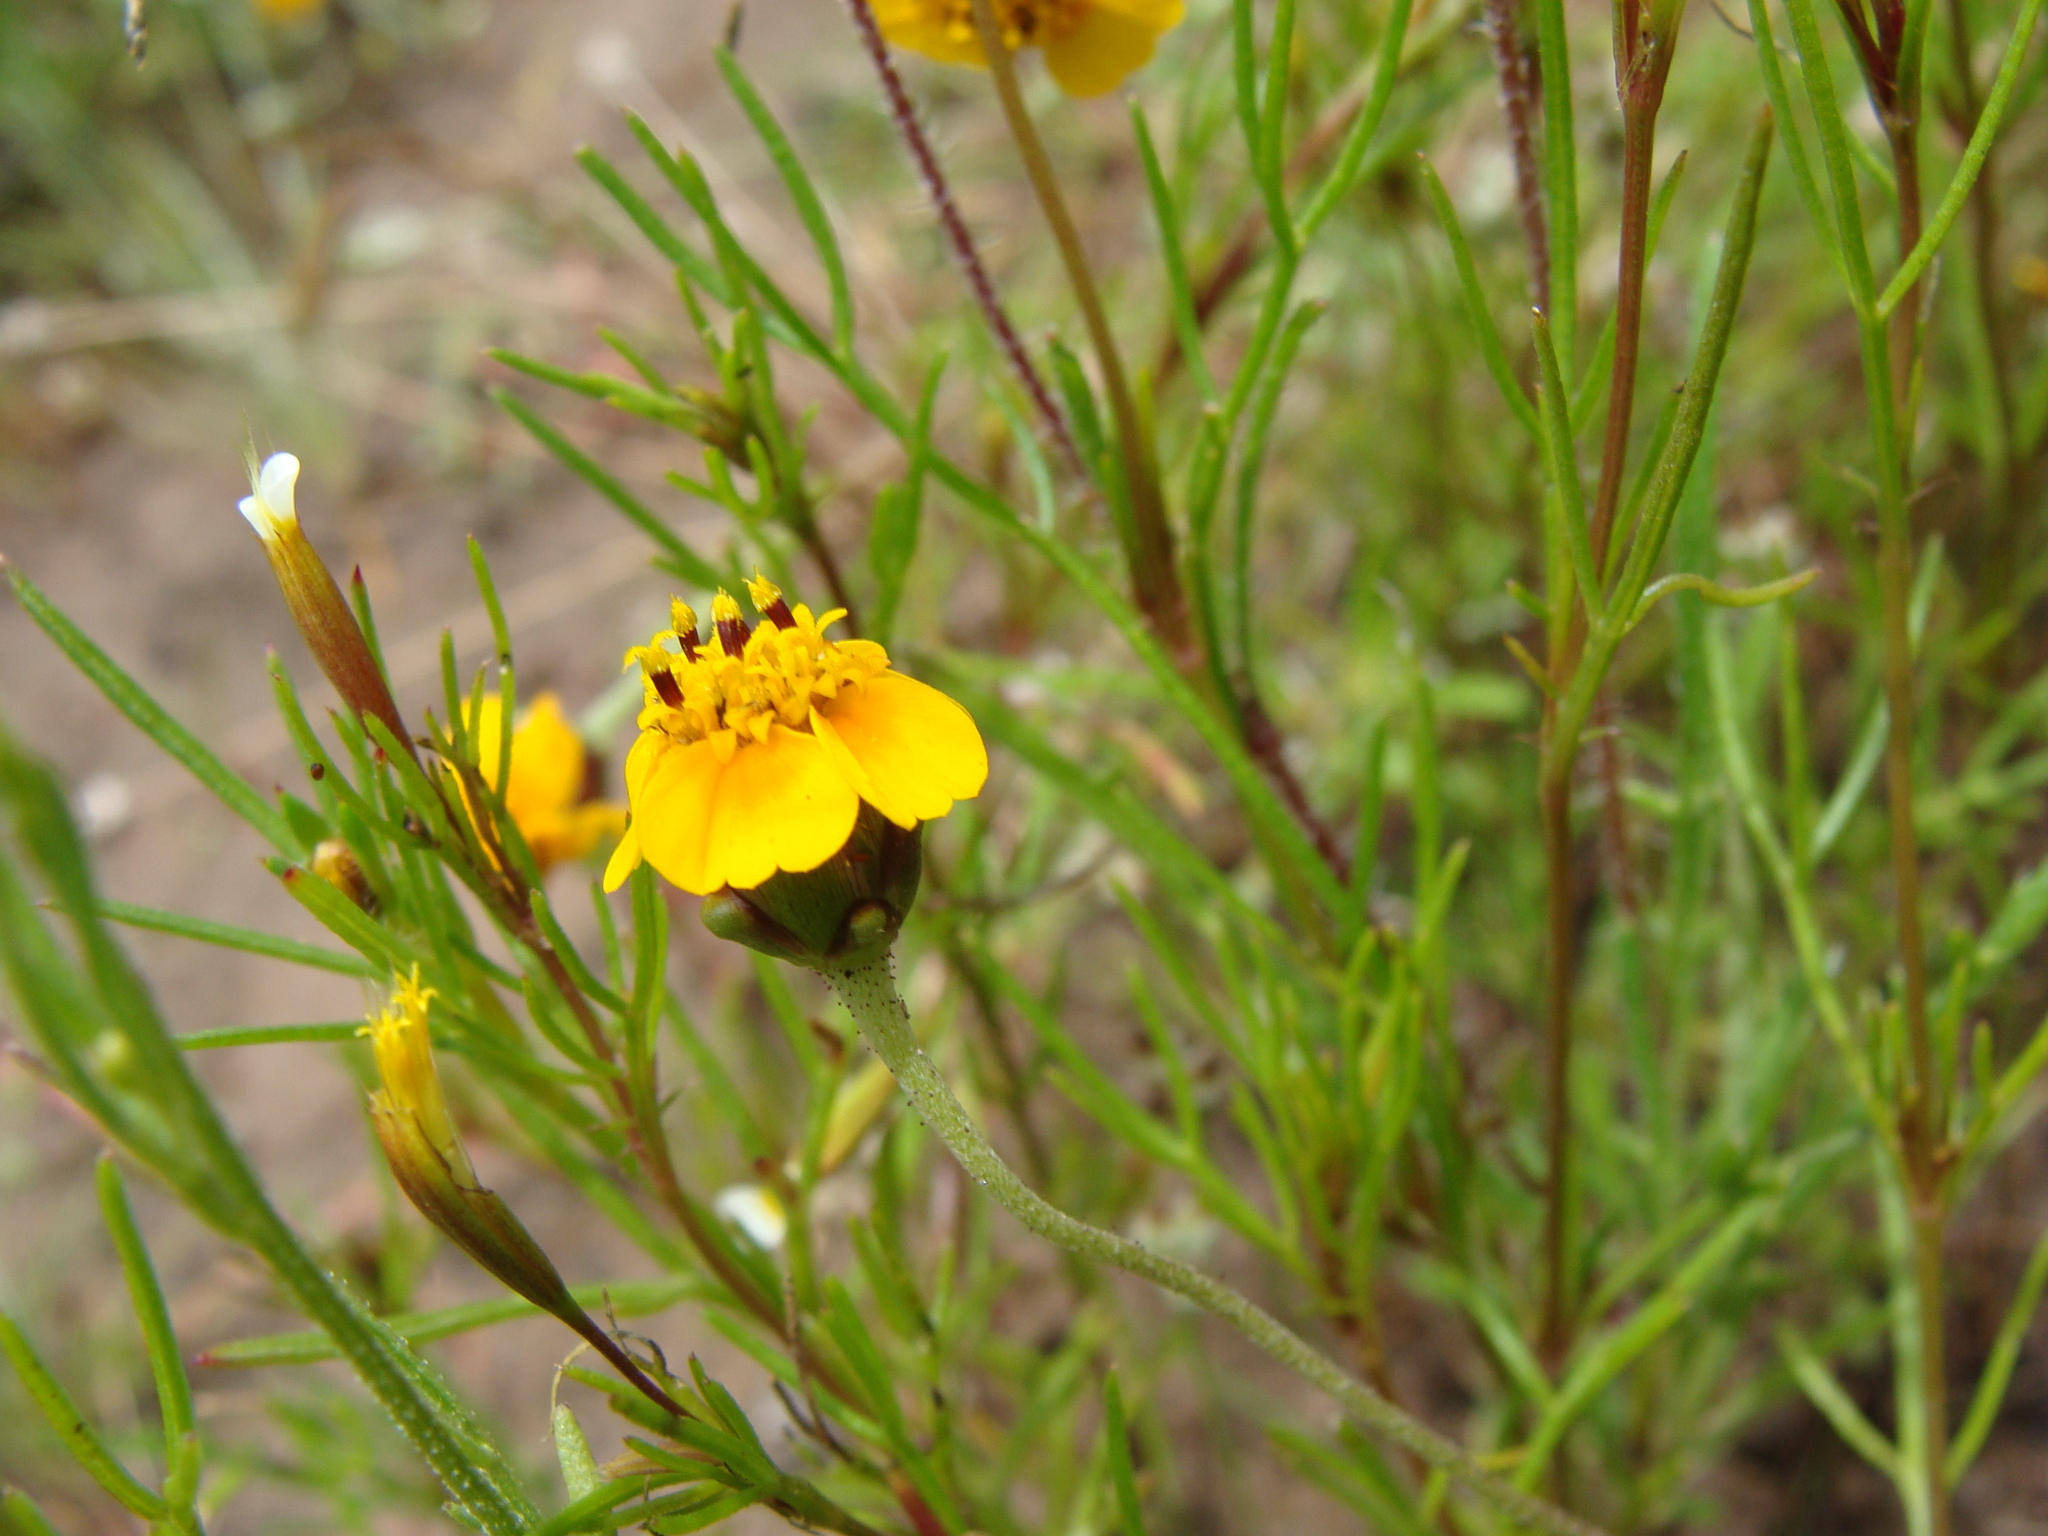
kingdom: Plantae
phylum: Tracheophyta
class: Magnoliopsida
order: Asterales
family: Asteraceae
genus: Tridax
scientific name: Tridax balbisioides
